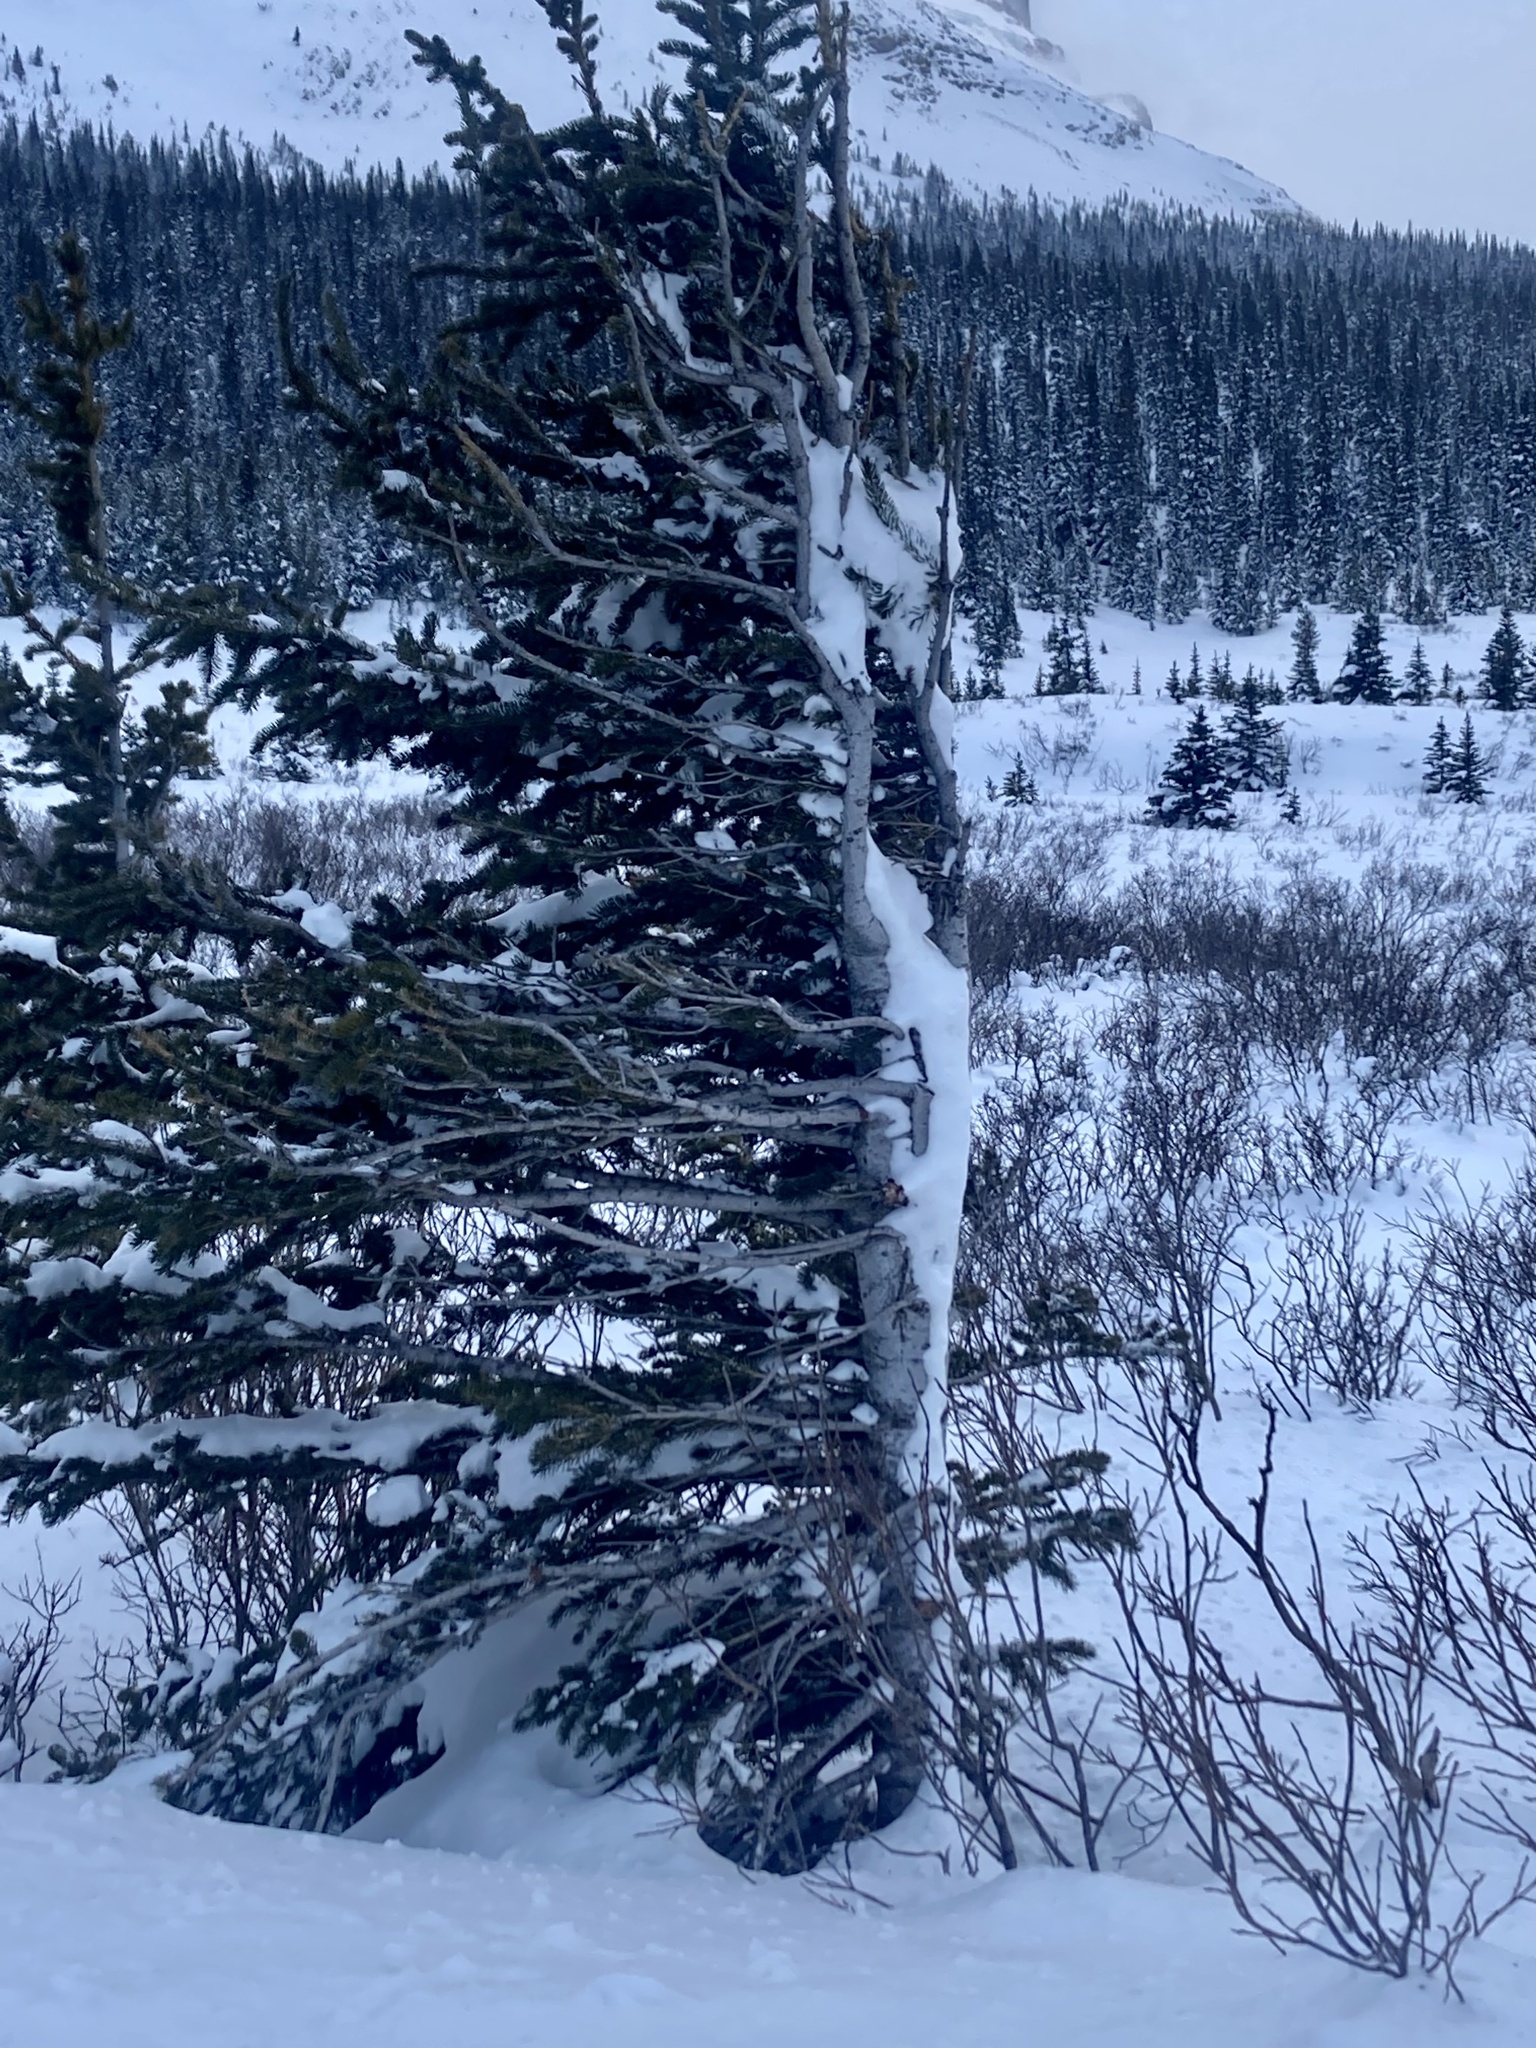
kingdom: Plantae
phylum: Tracheophyta
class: Pinopsida
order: Pinales
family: Pinaceae
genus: Abies
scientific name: Abies lasiocarpa
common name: Subalpine fir
